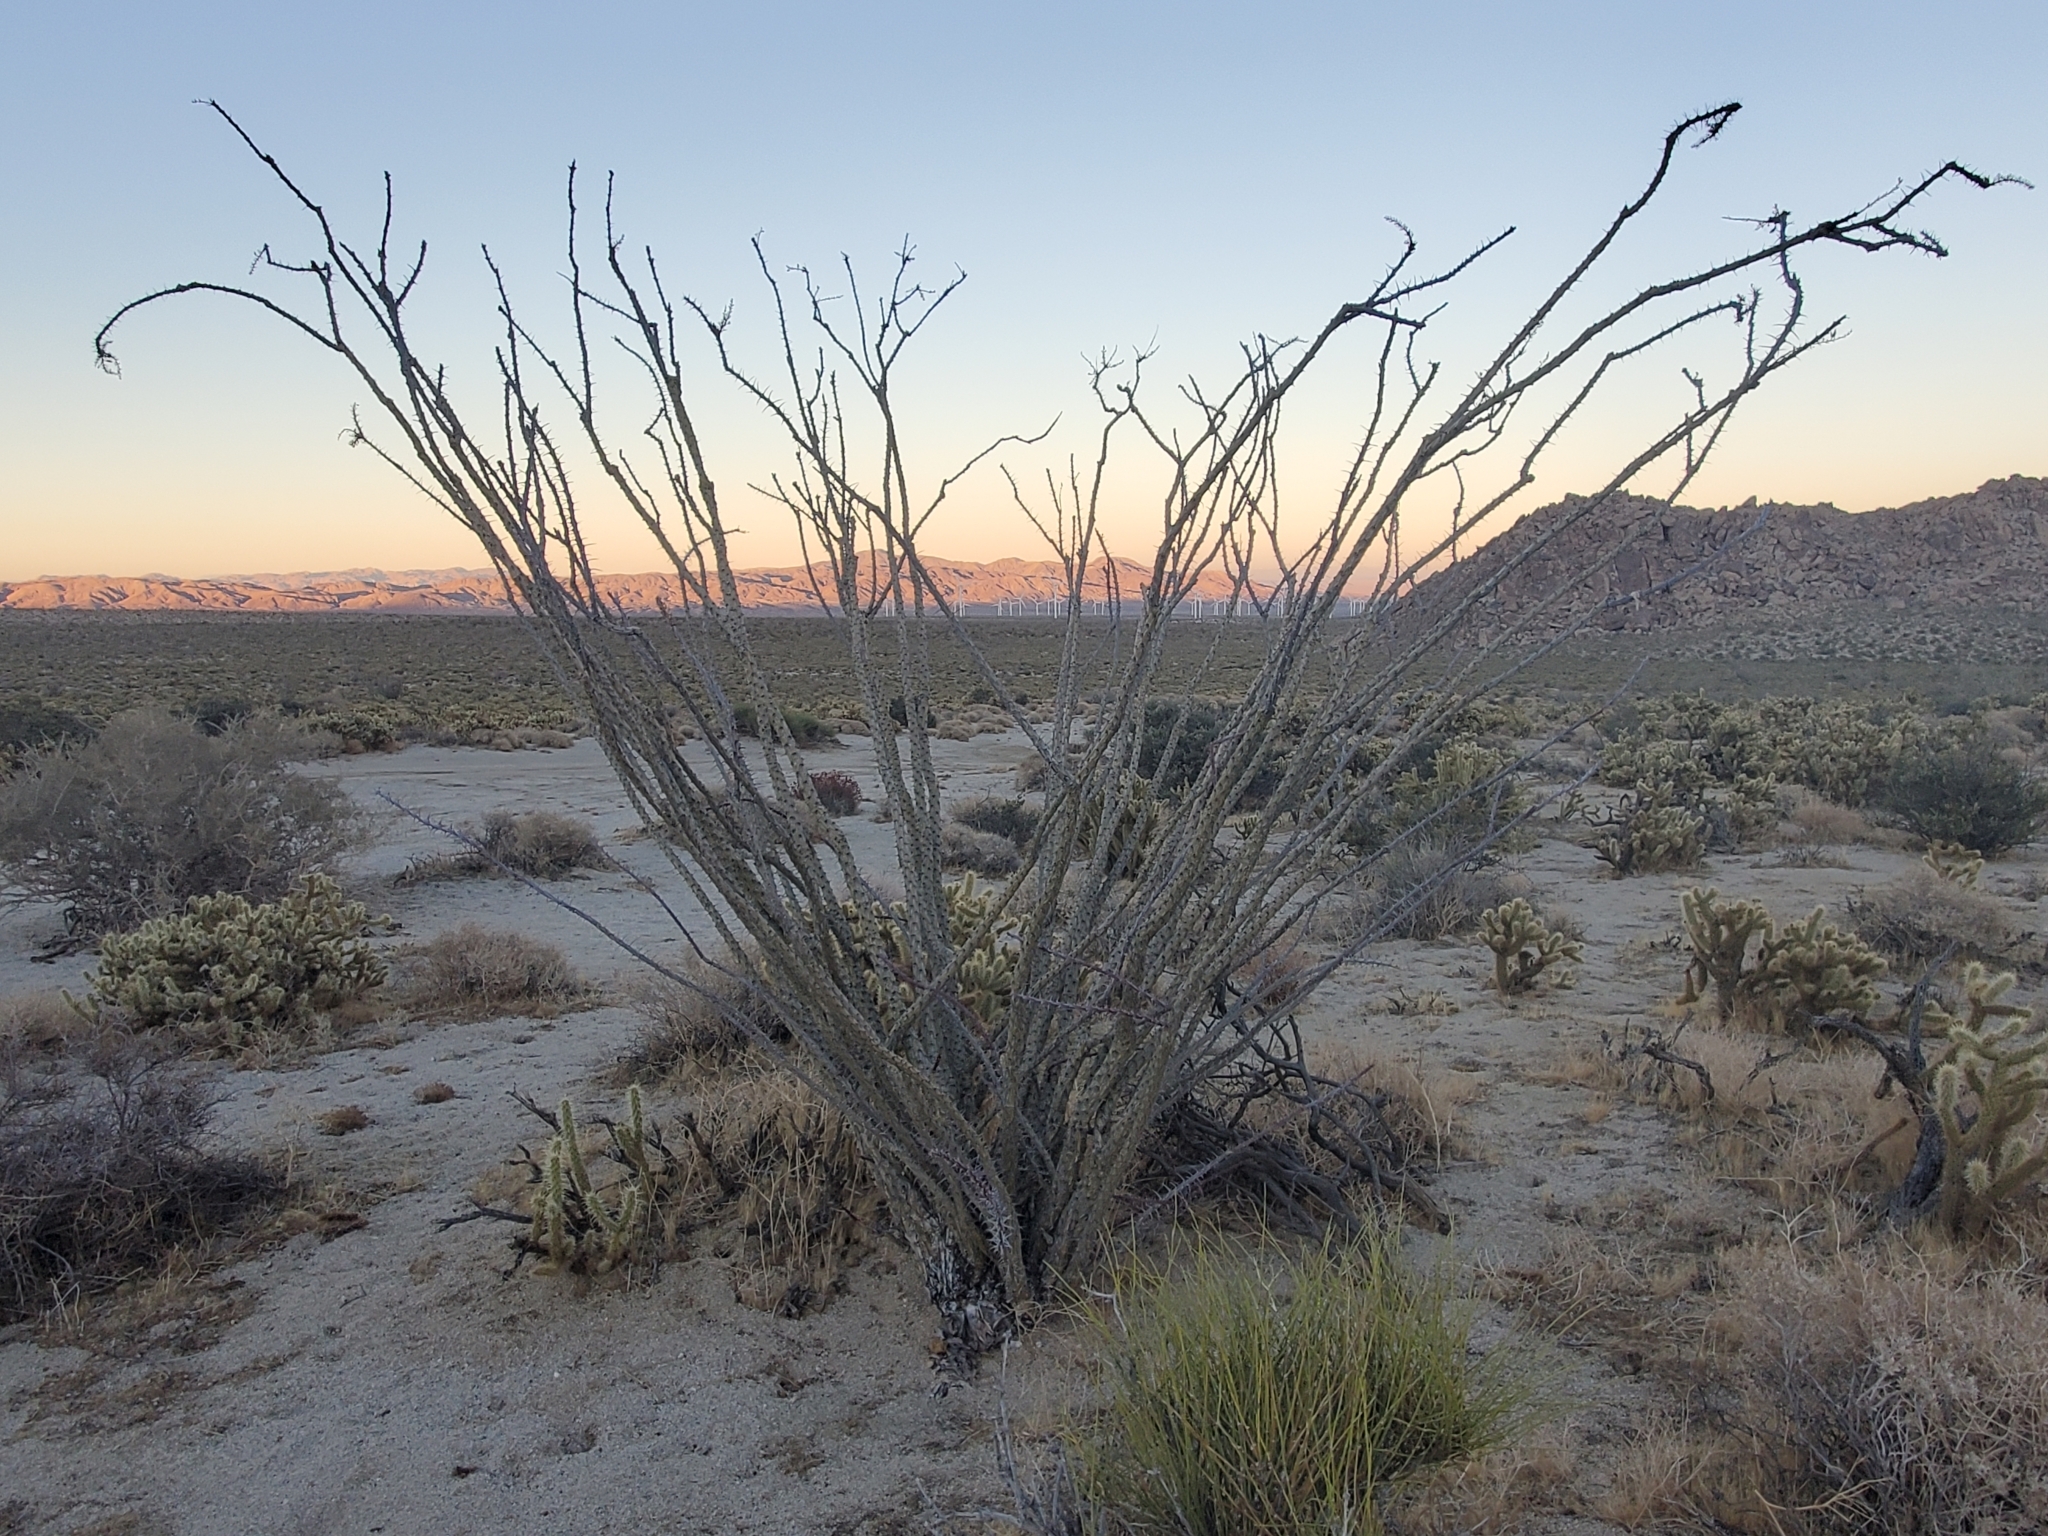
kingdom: Plantae
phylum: Tracheophyta
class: Magnoliopsida
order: Ericales
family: Fouquieriaceae
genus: Fouquieria
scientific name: Fouquieria splendens
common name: Vine-cactus
